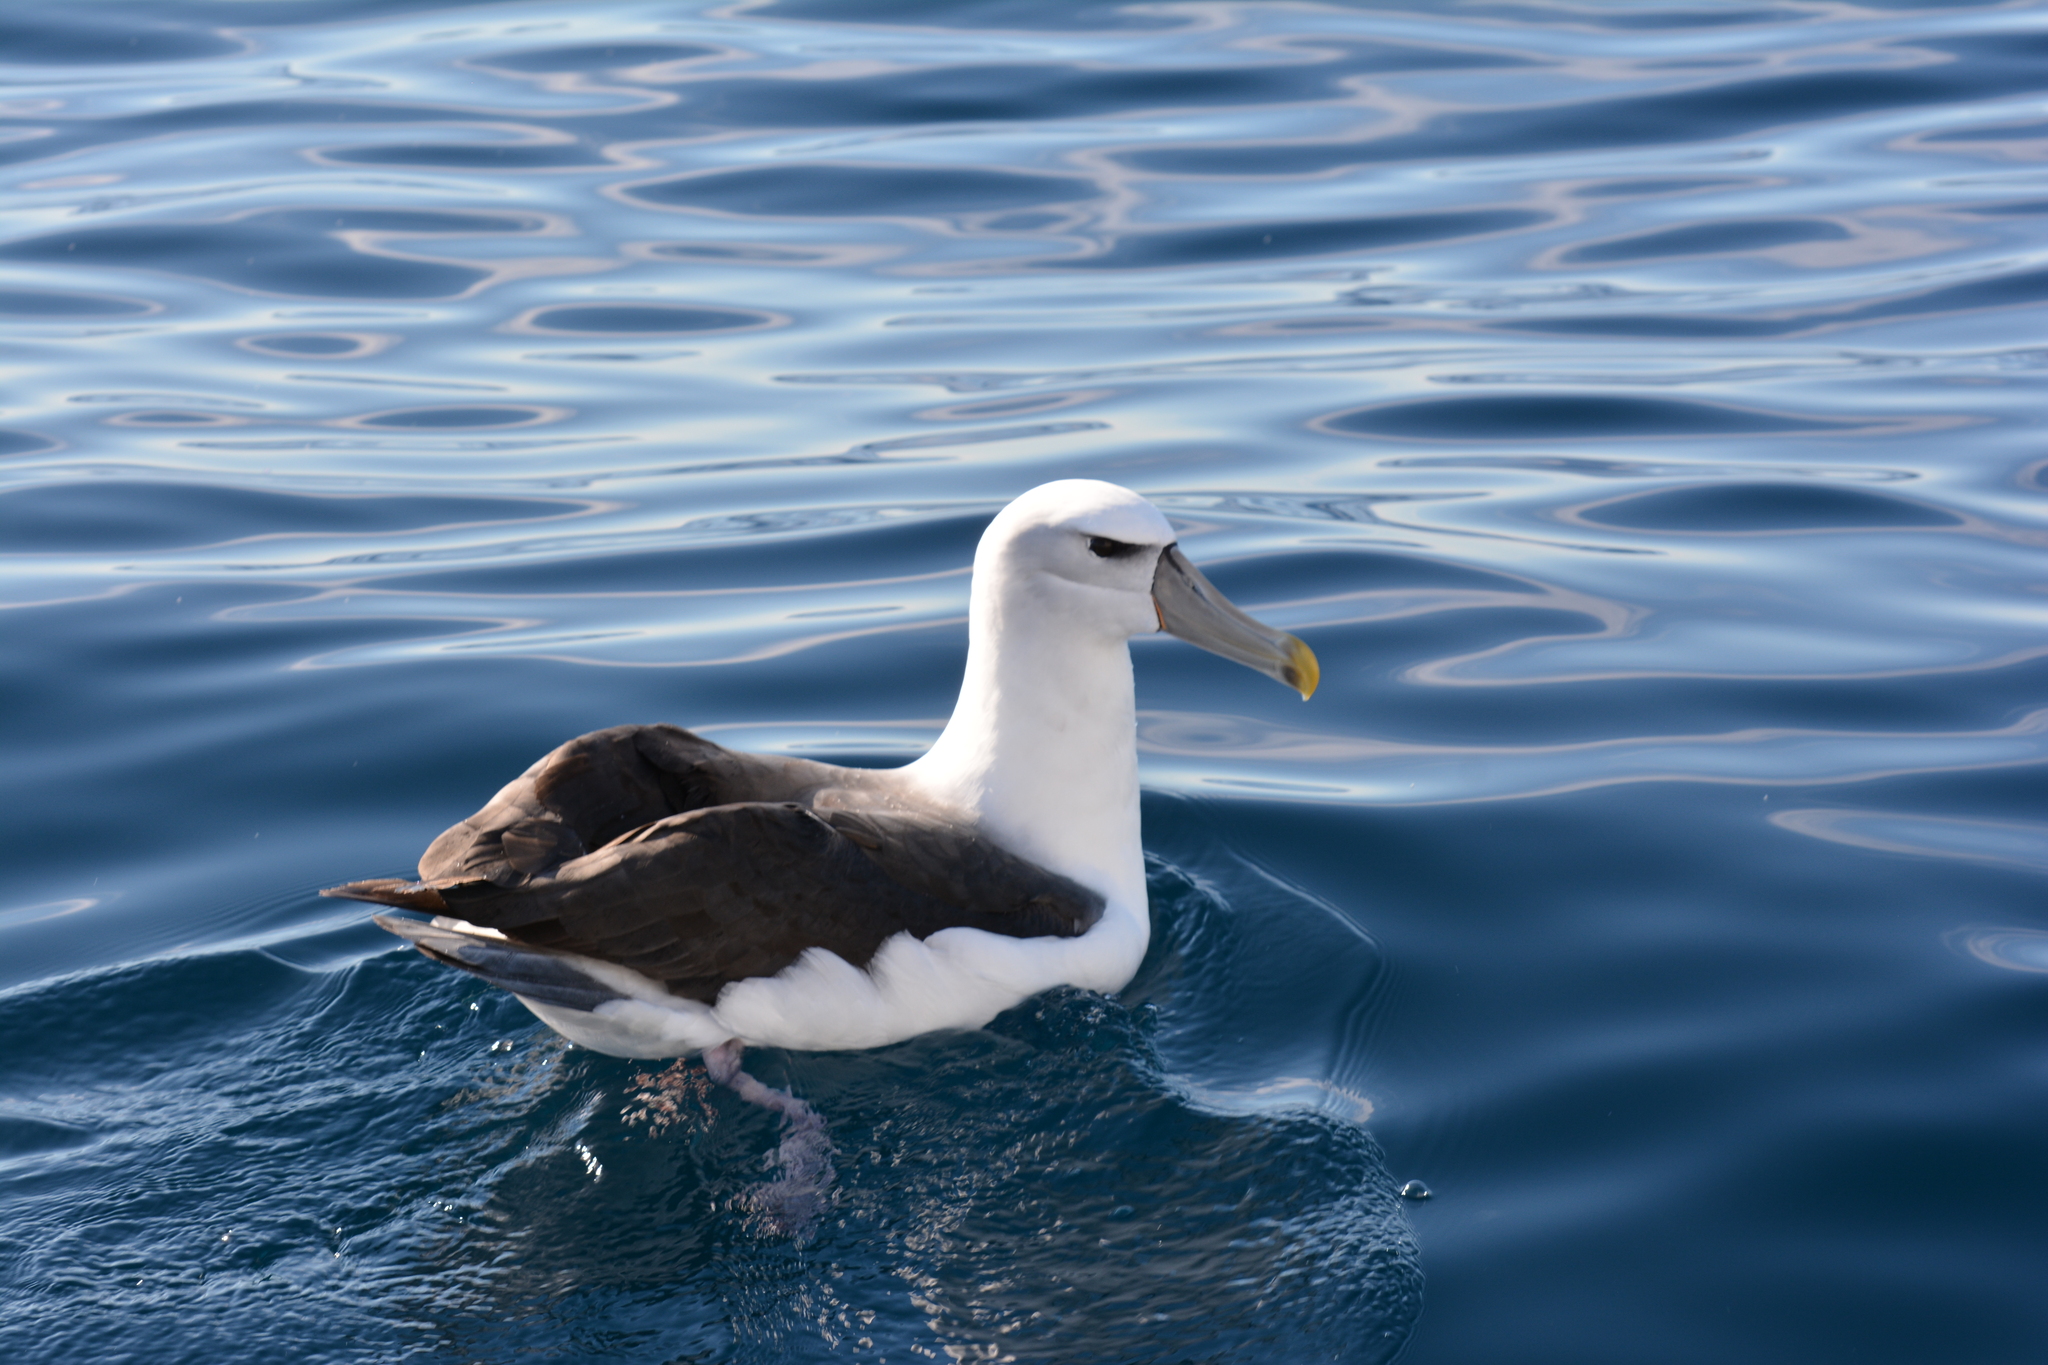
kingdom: Animalia
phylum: Chordata
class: Aves
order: Procellariiformes
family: Diomedeidae
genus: Thalassarche
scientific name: Thalassarche cauta
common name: Shy albatross
